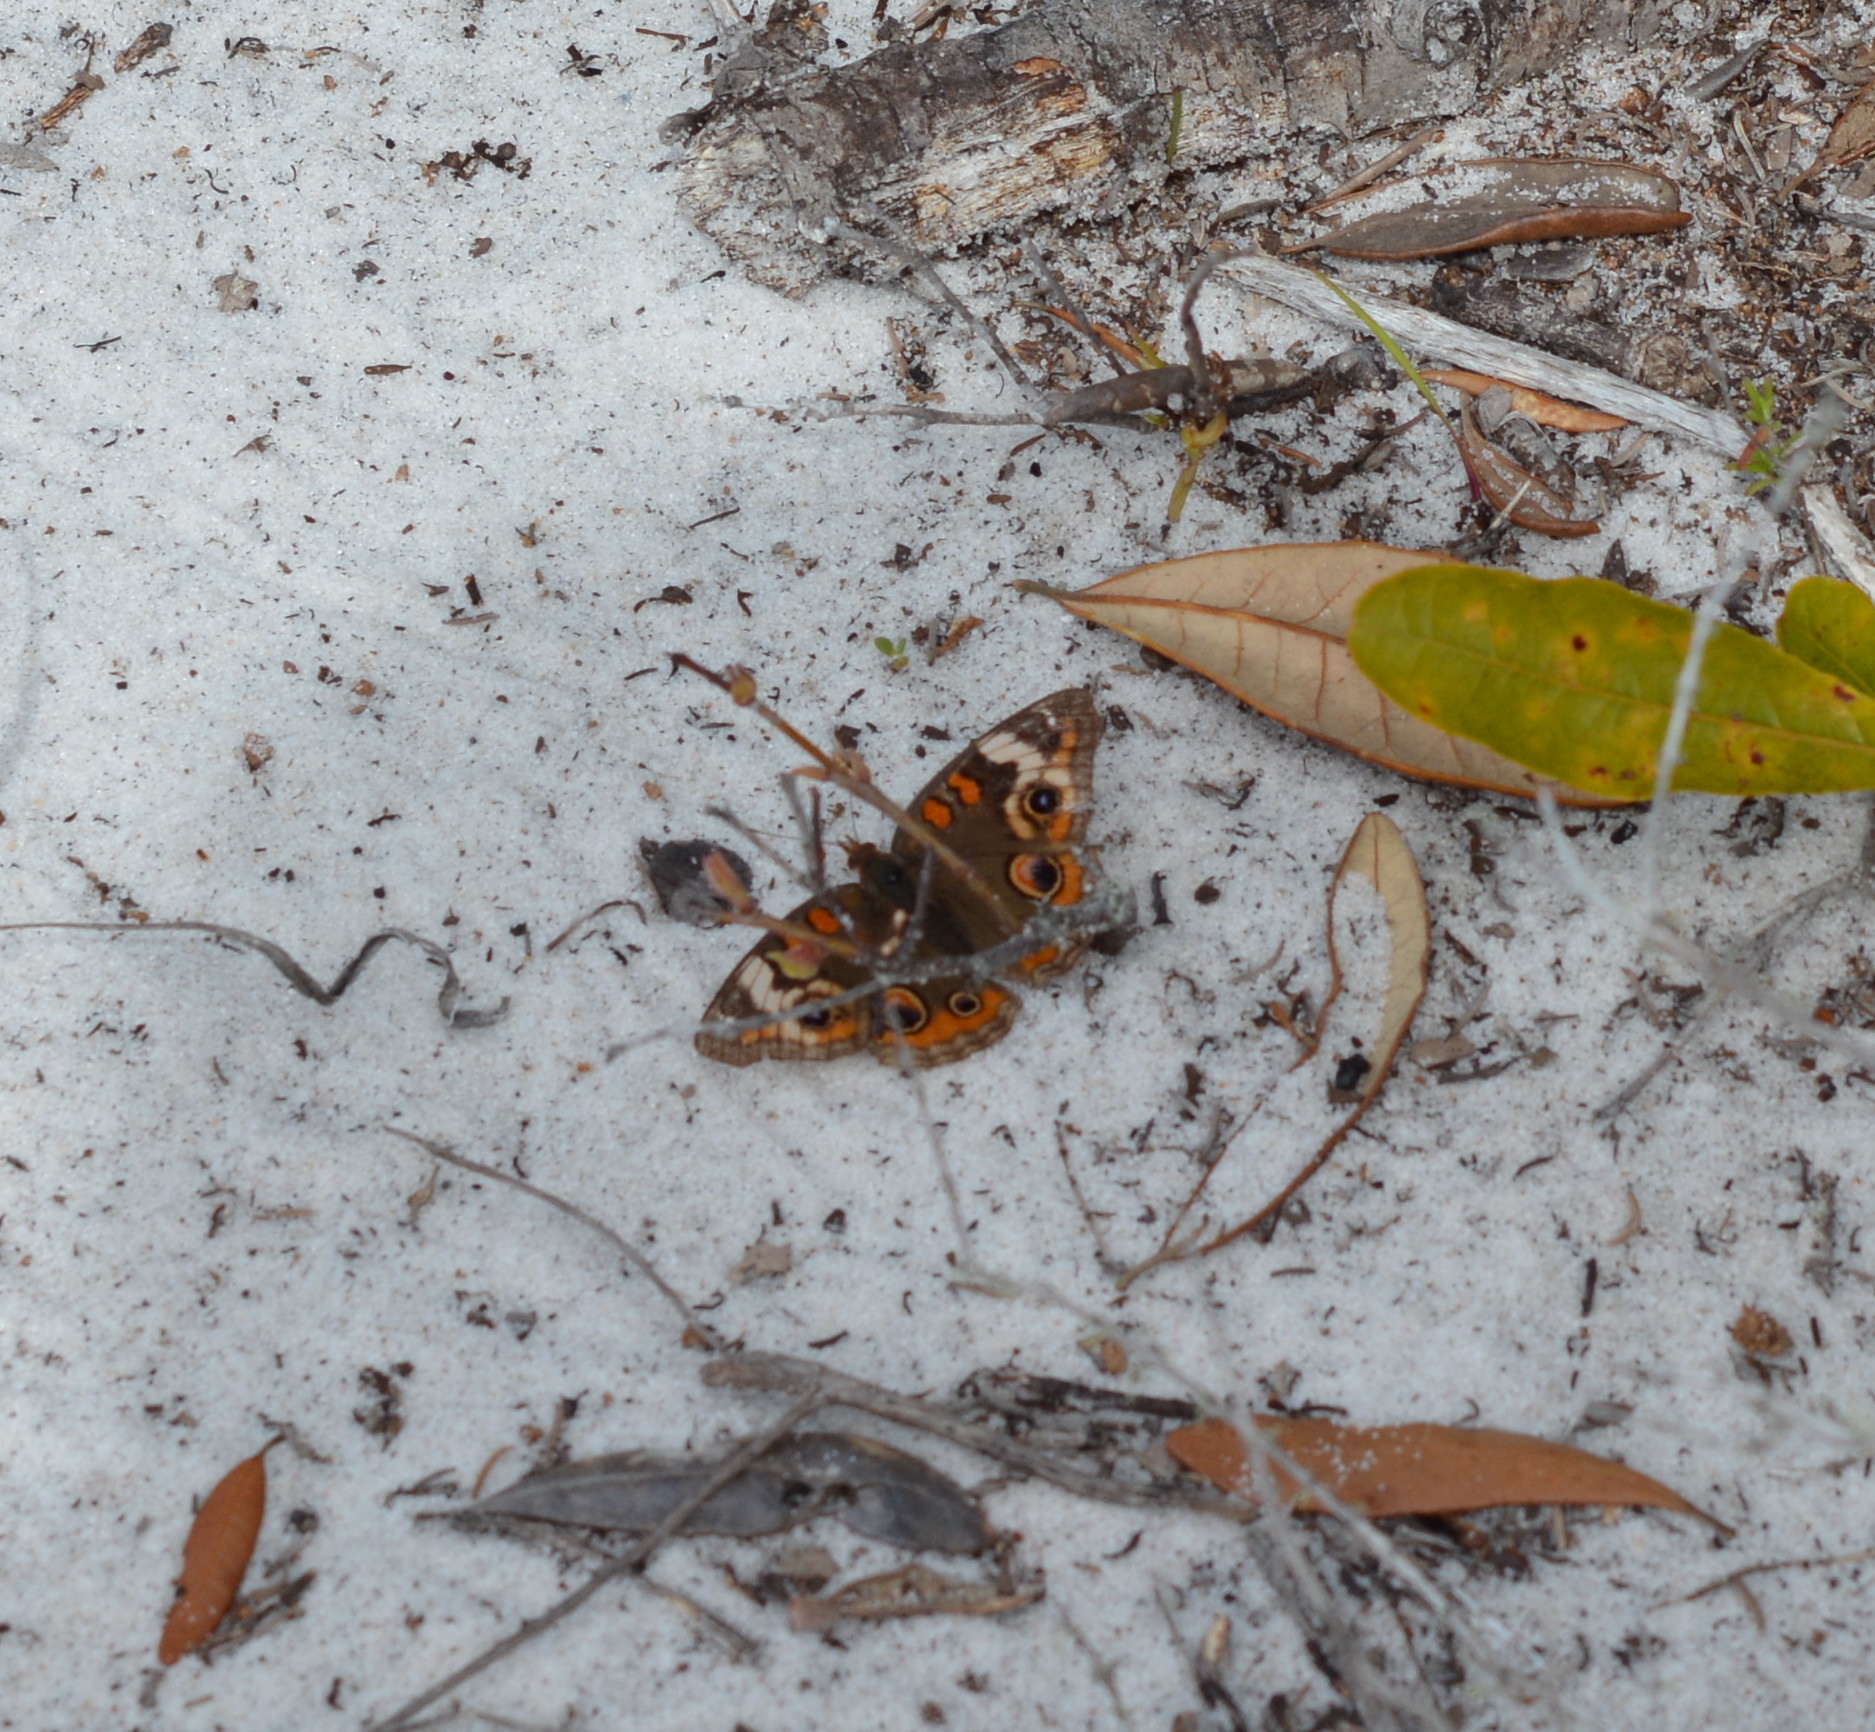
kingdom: Animalia
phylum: Arthropoda
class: Insecta
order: Lepidoptera
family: Nymphalidae
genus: Junonia
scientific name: Junonia coenia
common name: Common buckeye
